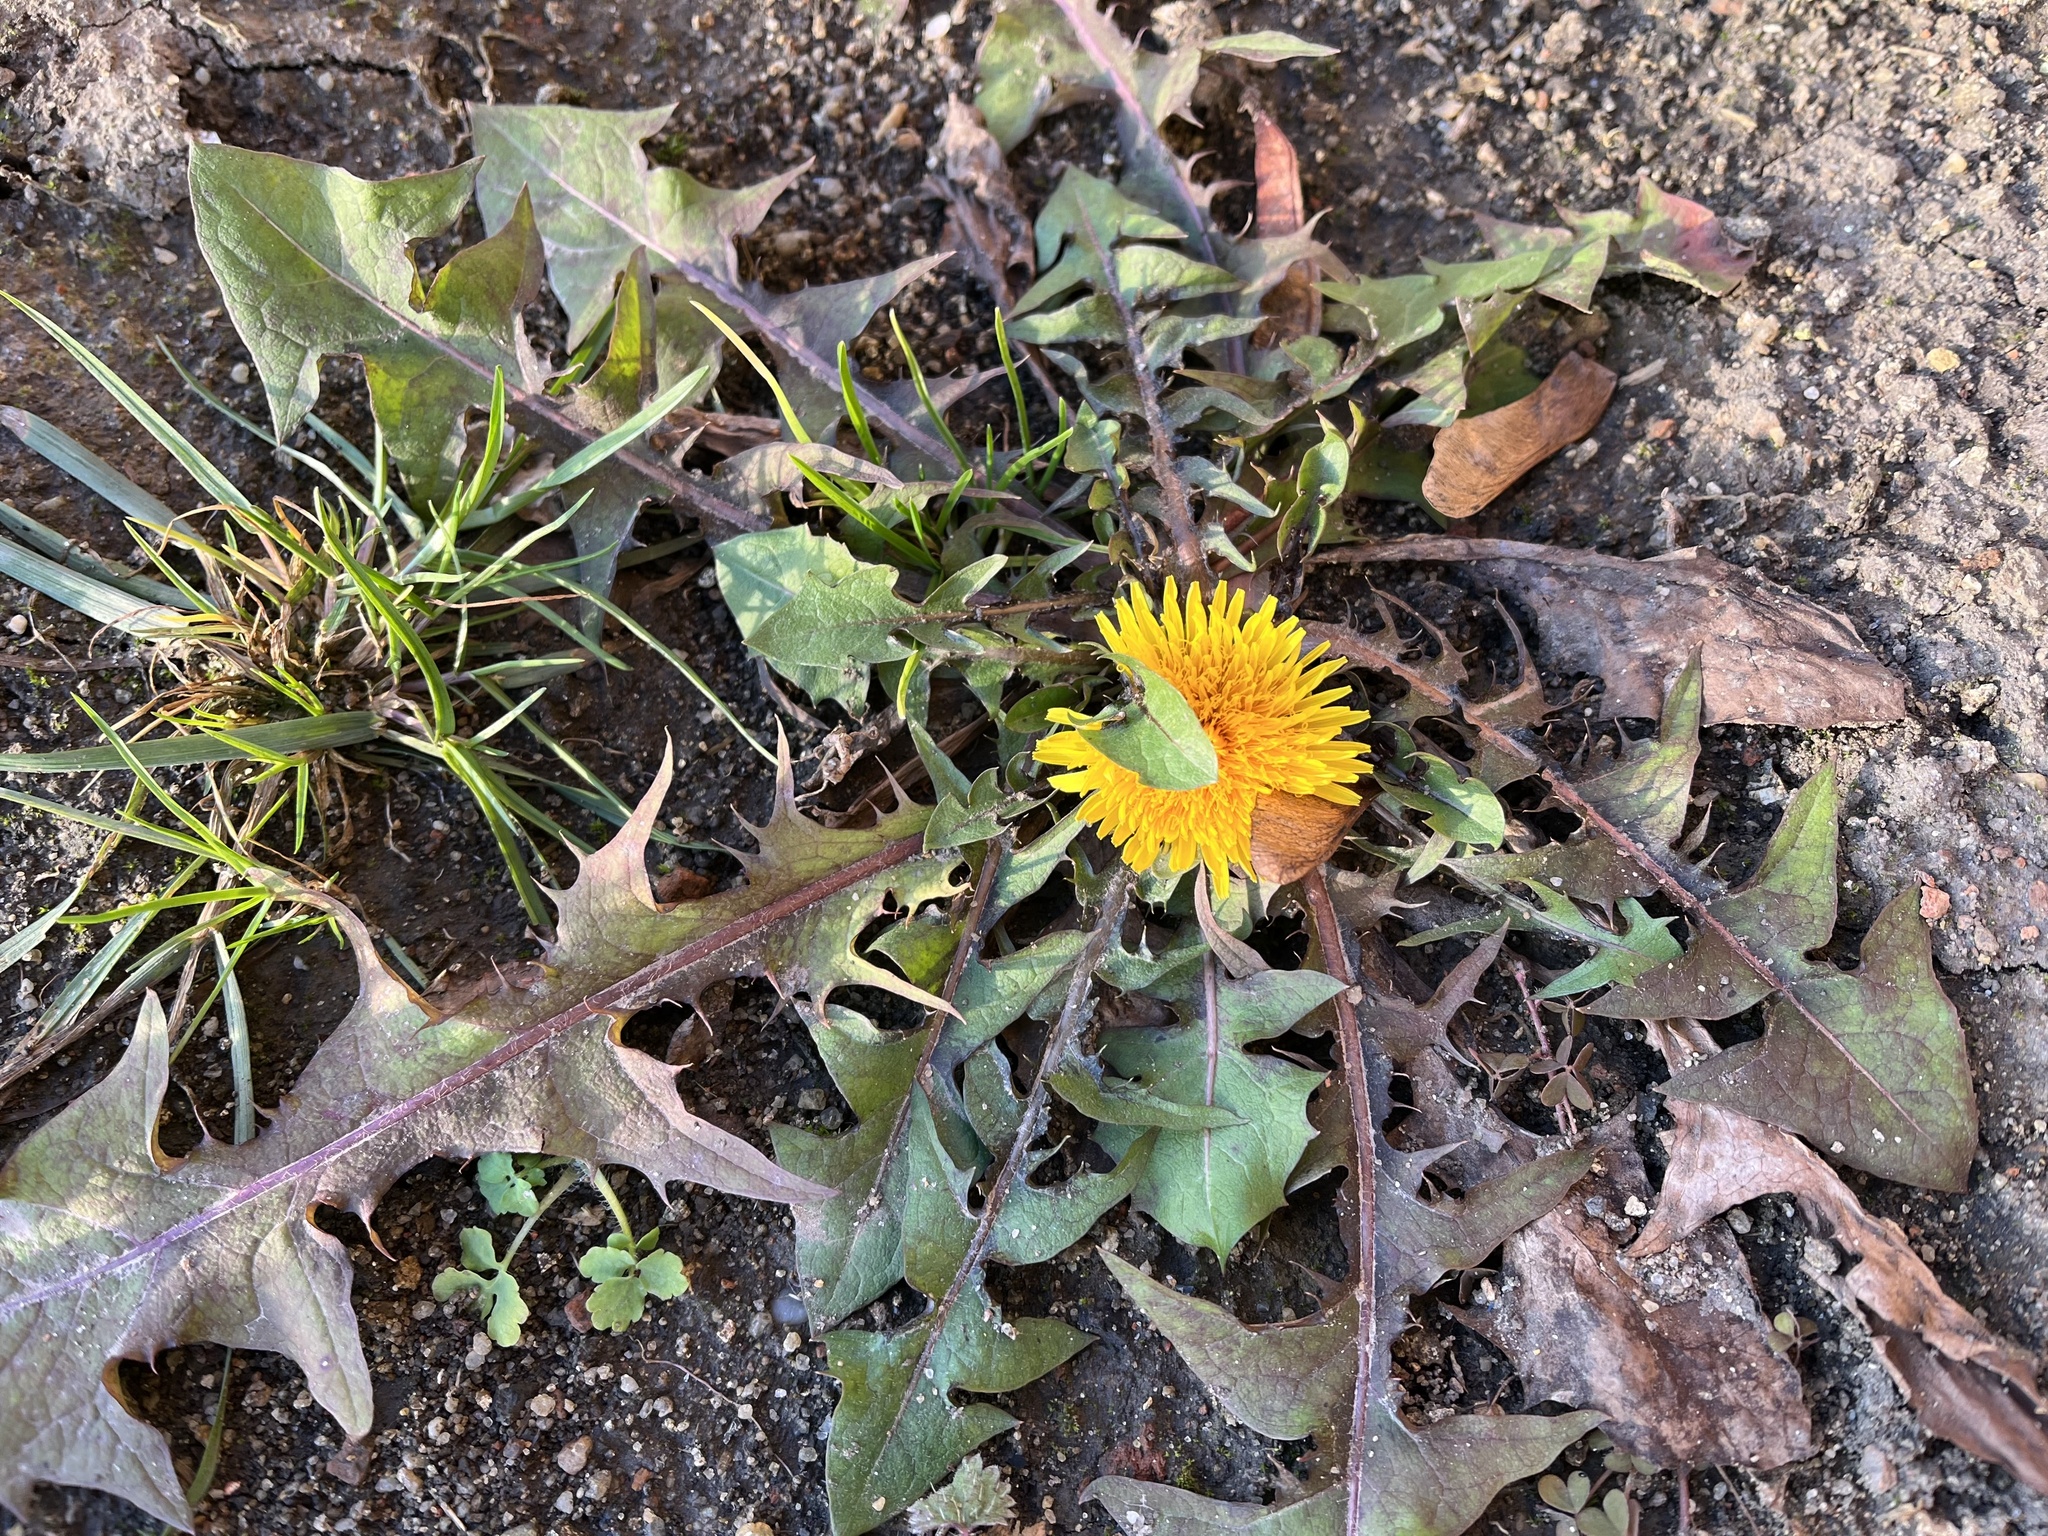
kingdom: Plantae
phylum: Tracheophyta
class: Magnoliopsida
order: Asterales
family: Asteraceae
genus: Taraxacum
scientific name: Taraxacum
